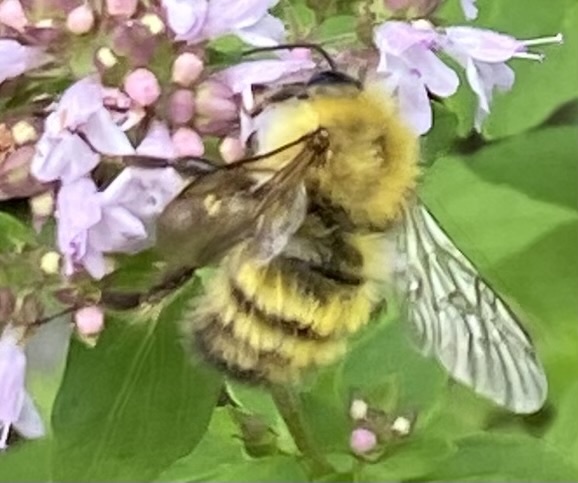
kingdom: Animalia
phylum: Arthropoda
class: Insecta
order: Hymenoptera
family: Apidae
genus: Bombus
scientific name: Bombus perplexus
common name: Confusing bumble bee
